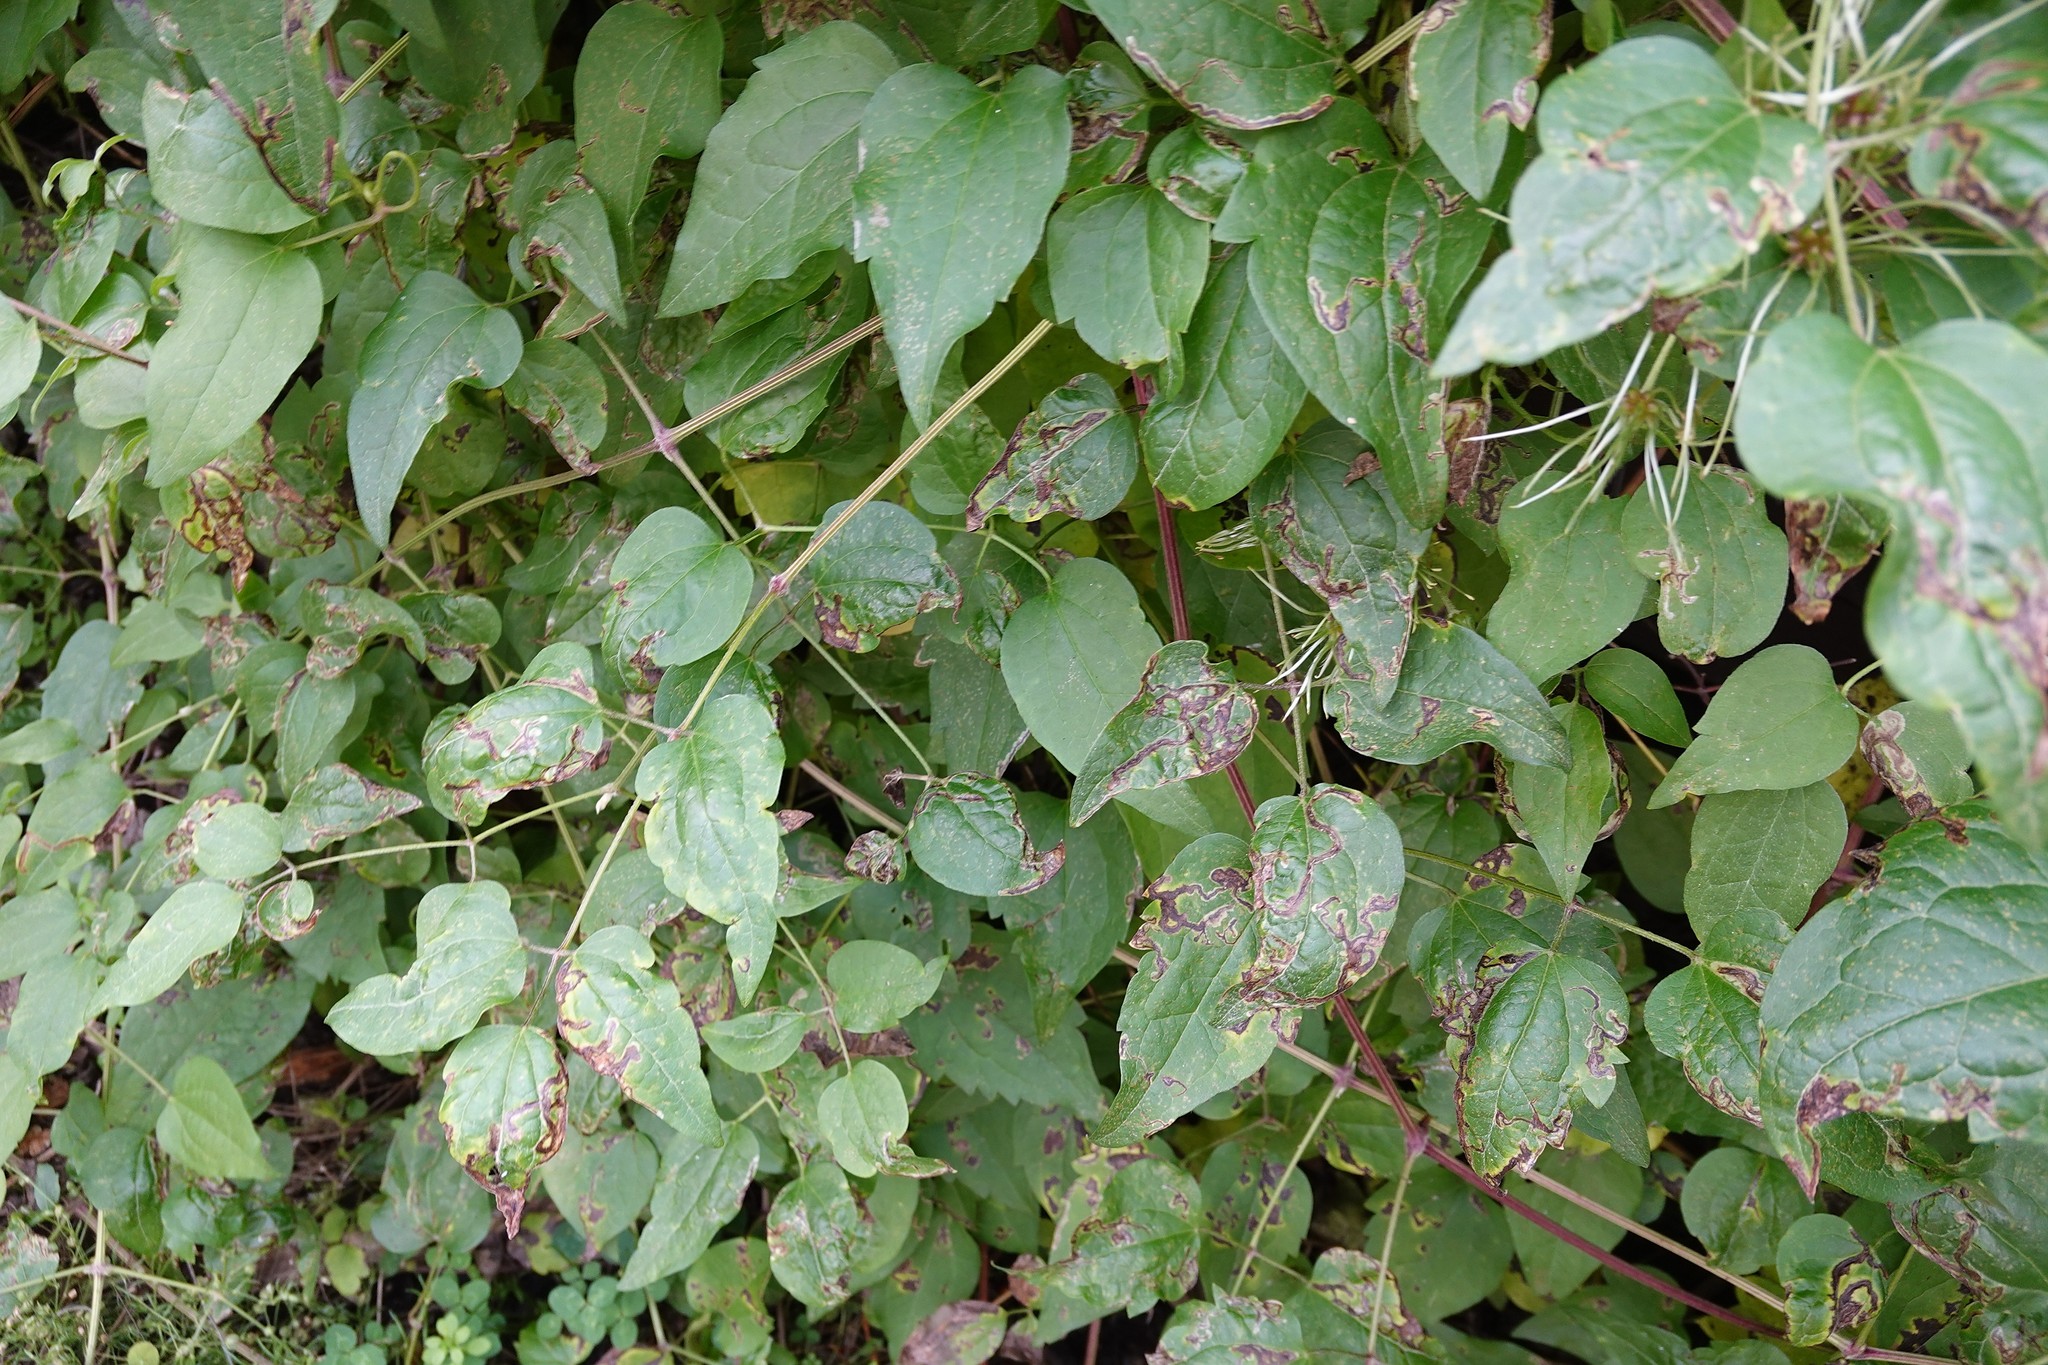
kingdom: Animalia
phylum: Arthropoda
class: Insecta
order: Diptera
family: Agromyzidae
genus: Phytomyza
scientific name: Phytomyza vitalbae
